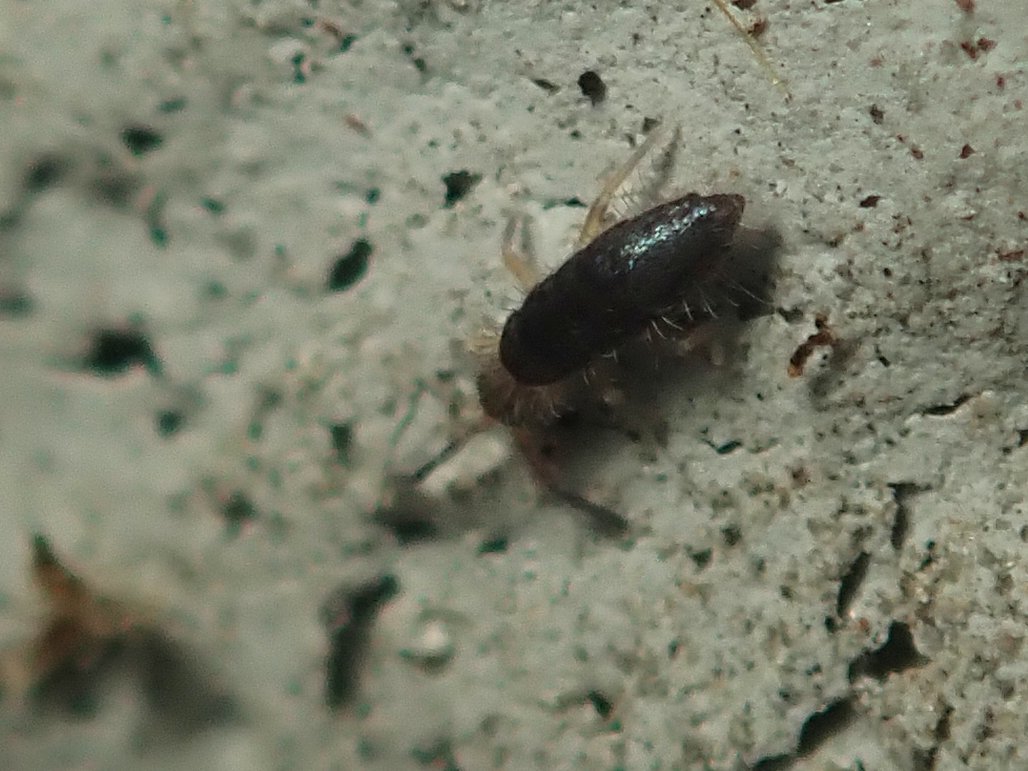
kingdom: Animalia
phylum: Arthropoda
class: Collembola
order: Entomobryomorpha
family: Entomobryidae
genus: Willowsia
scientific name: Willowsia buski
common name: Damp grain springtail
